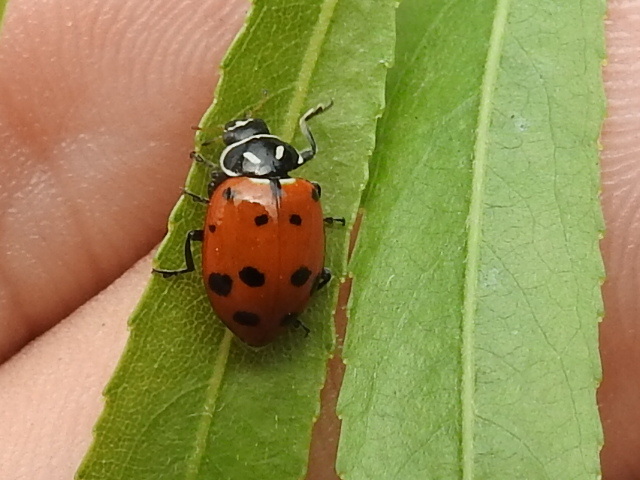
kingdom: Animalia
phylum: Arthropoda
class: Insecta
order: Coleoptera
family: Coccinellidae
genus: Hippodamia
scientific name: Hippodamia convergens
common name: Convergent lady beetle
